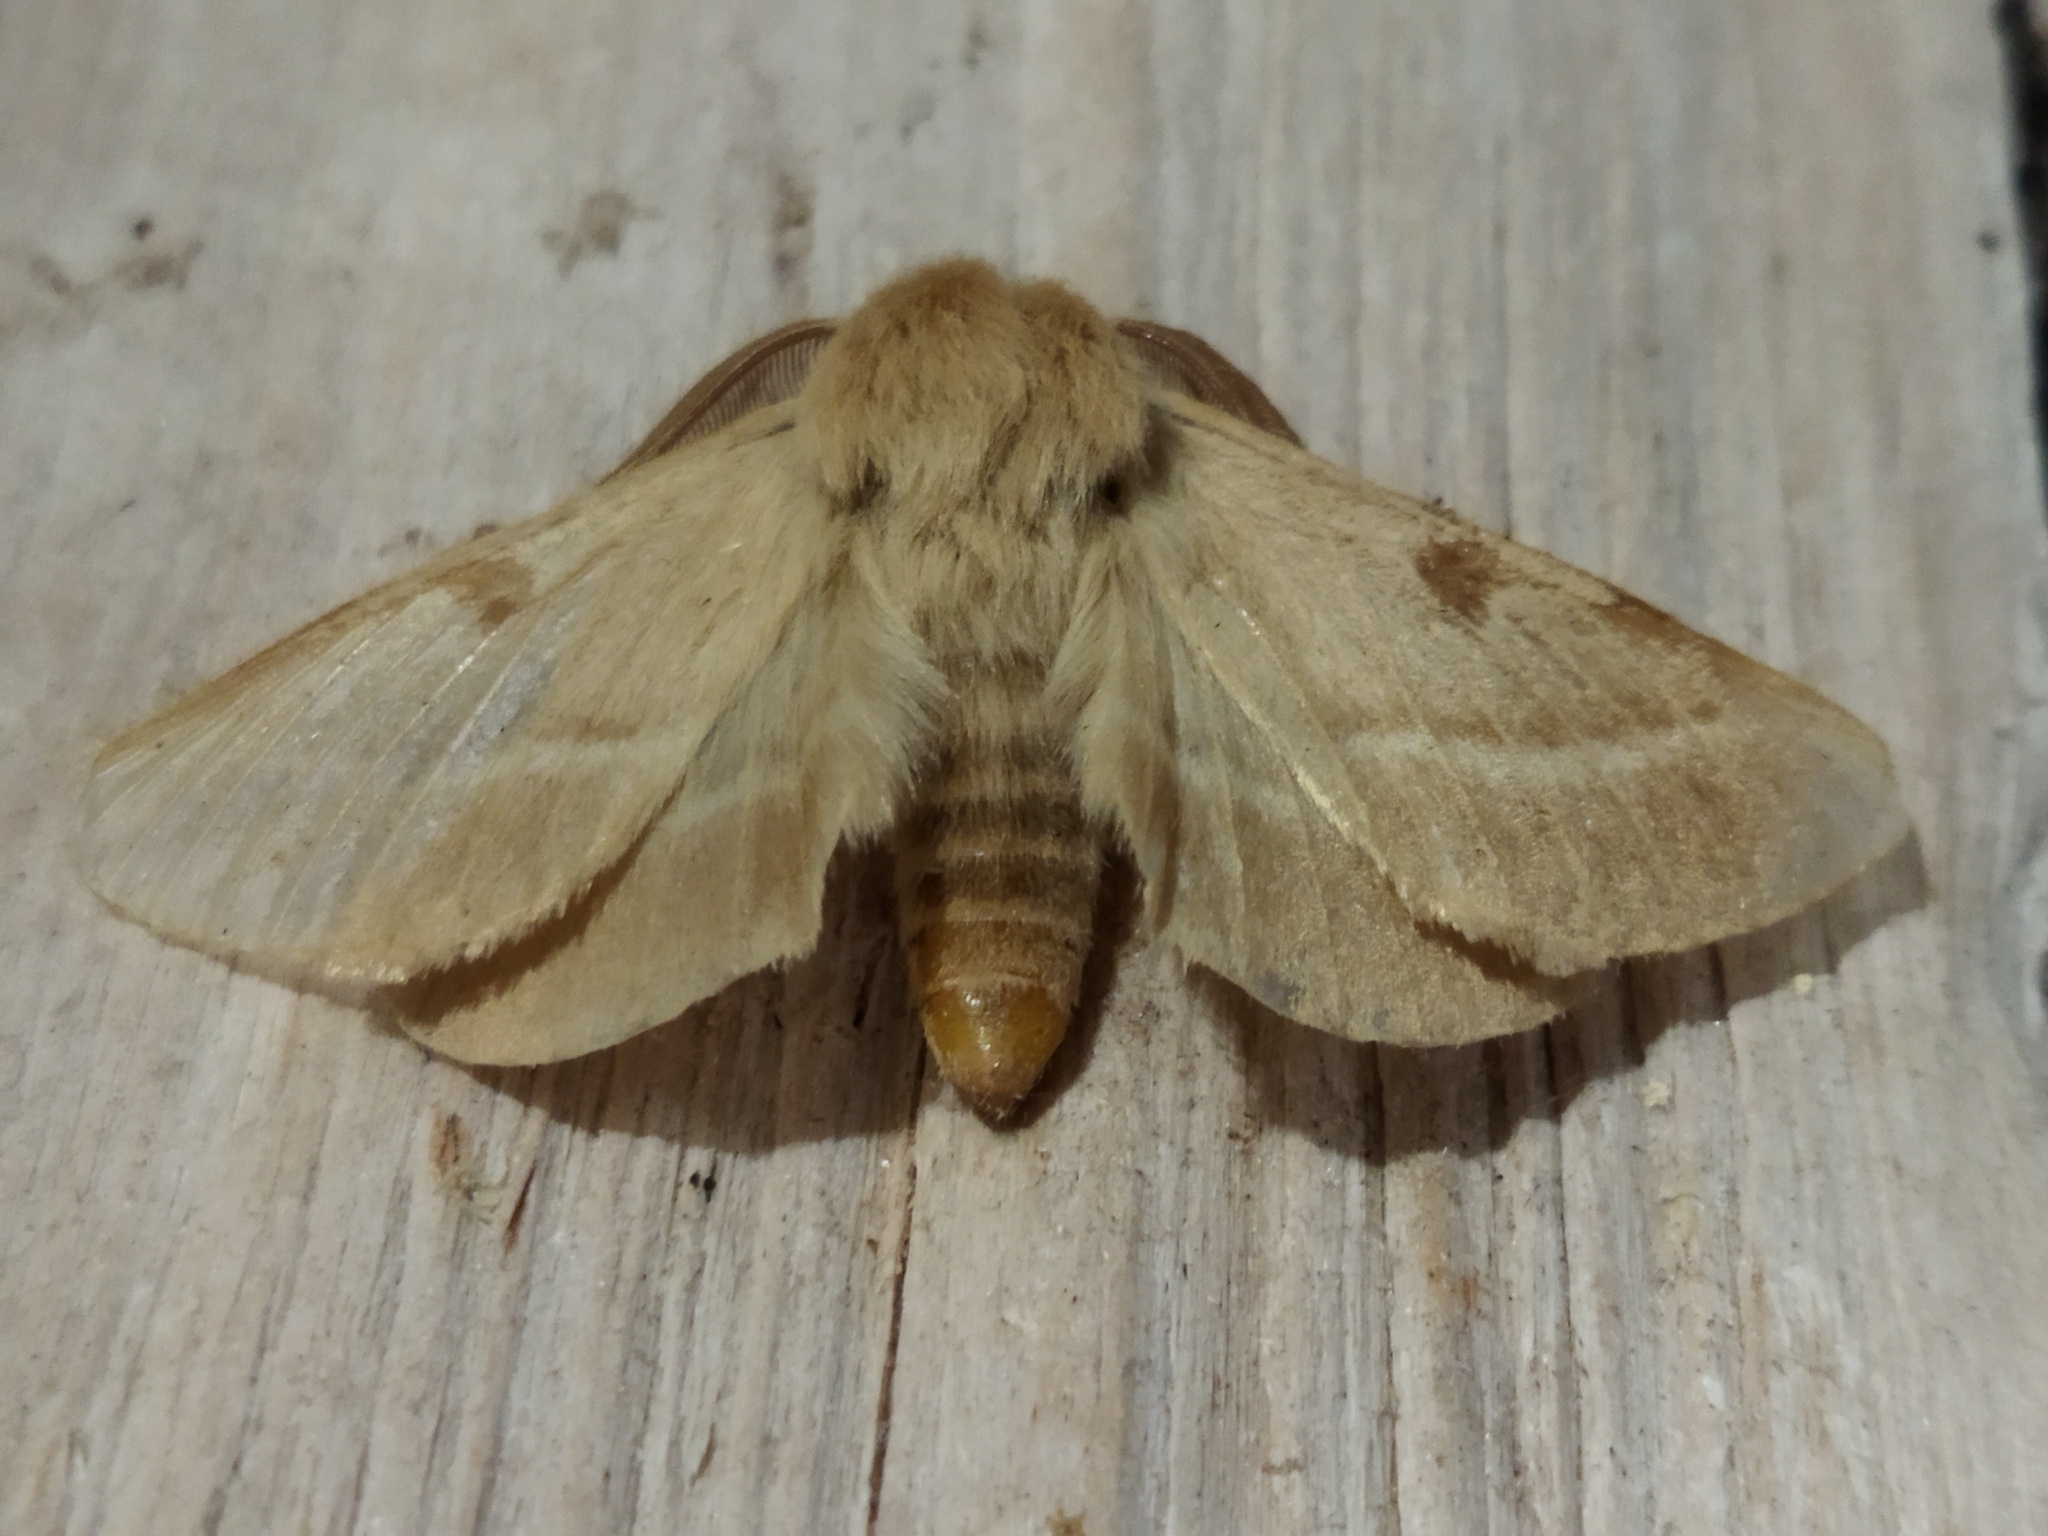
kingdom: Animalia
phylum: Arthropoda
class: Insecta
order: Lepidoptera
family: Brahmaeidae
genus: Lemonia
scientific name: Lemonia balcanica
